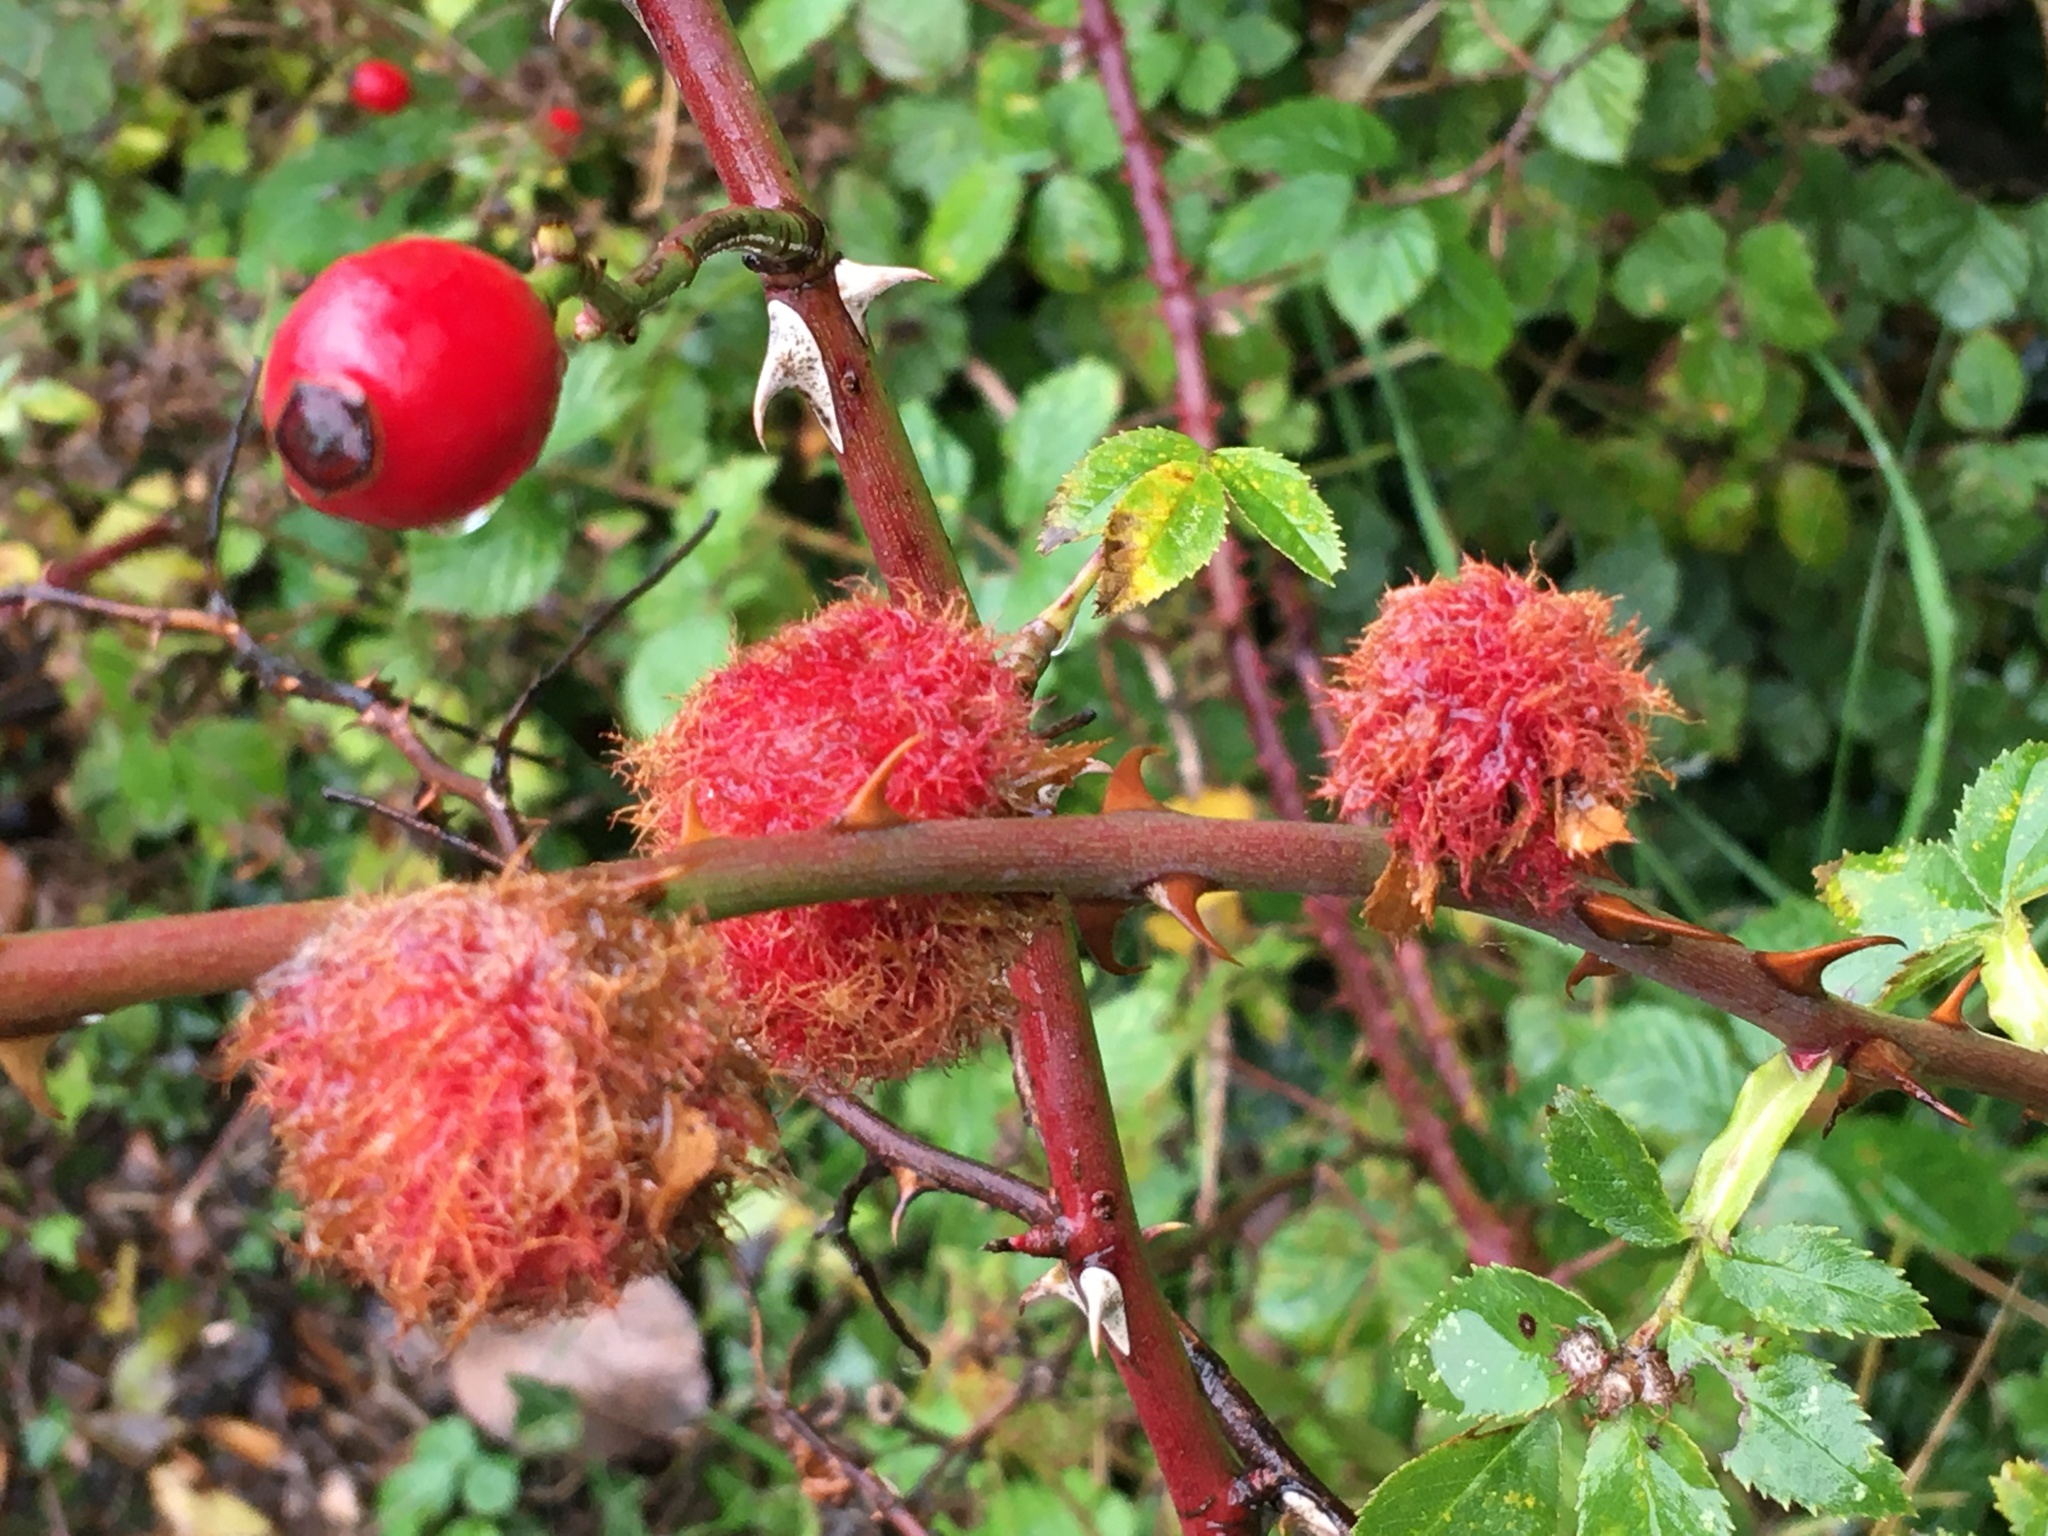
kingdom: Animalia
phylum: Arthropoda
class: Insecta
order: Hymenoptera
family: Cynipidae
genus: Diplolepis
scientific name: Diplolepis rosae
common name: Bedeguar gall
